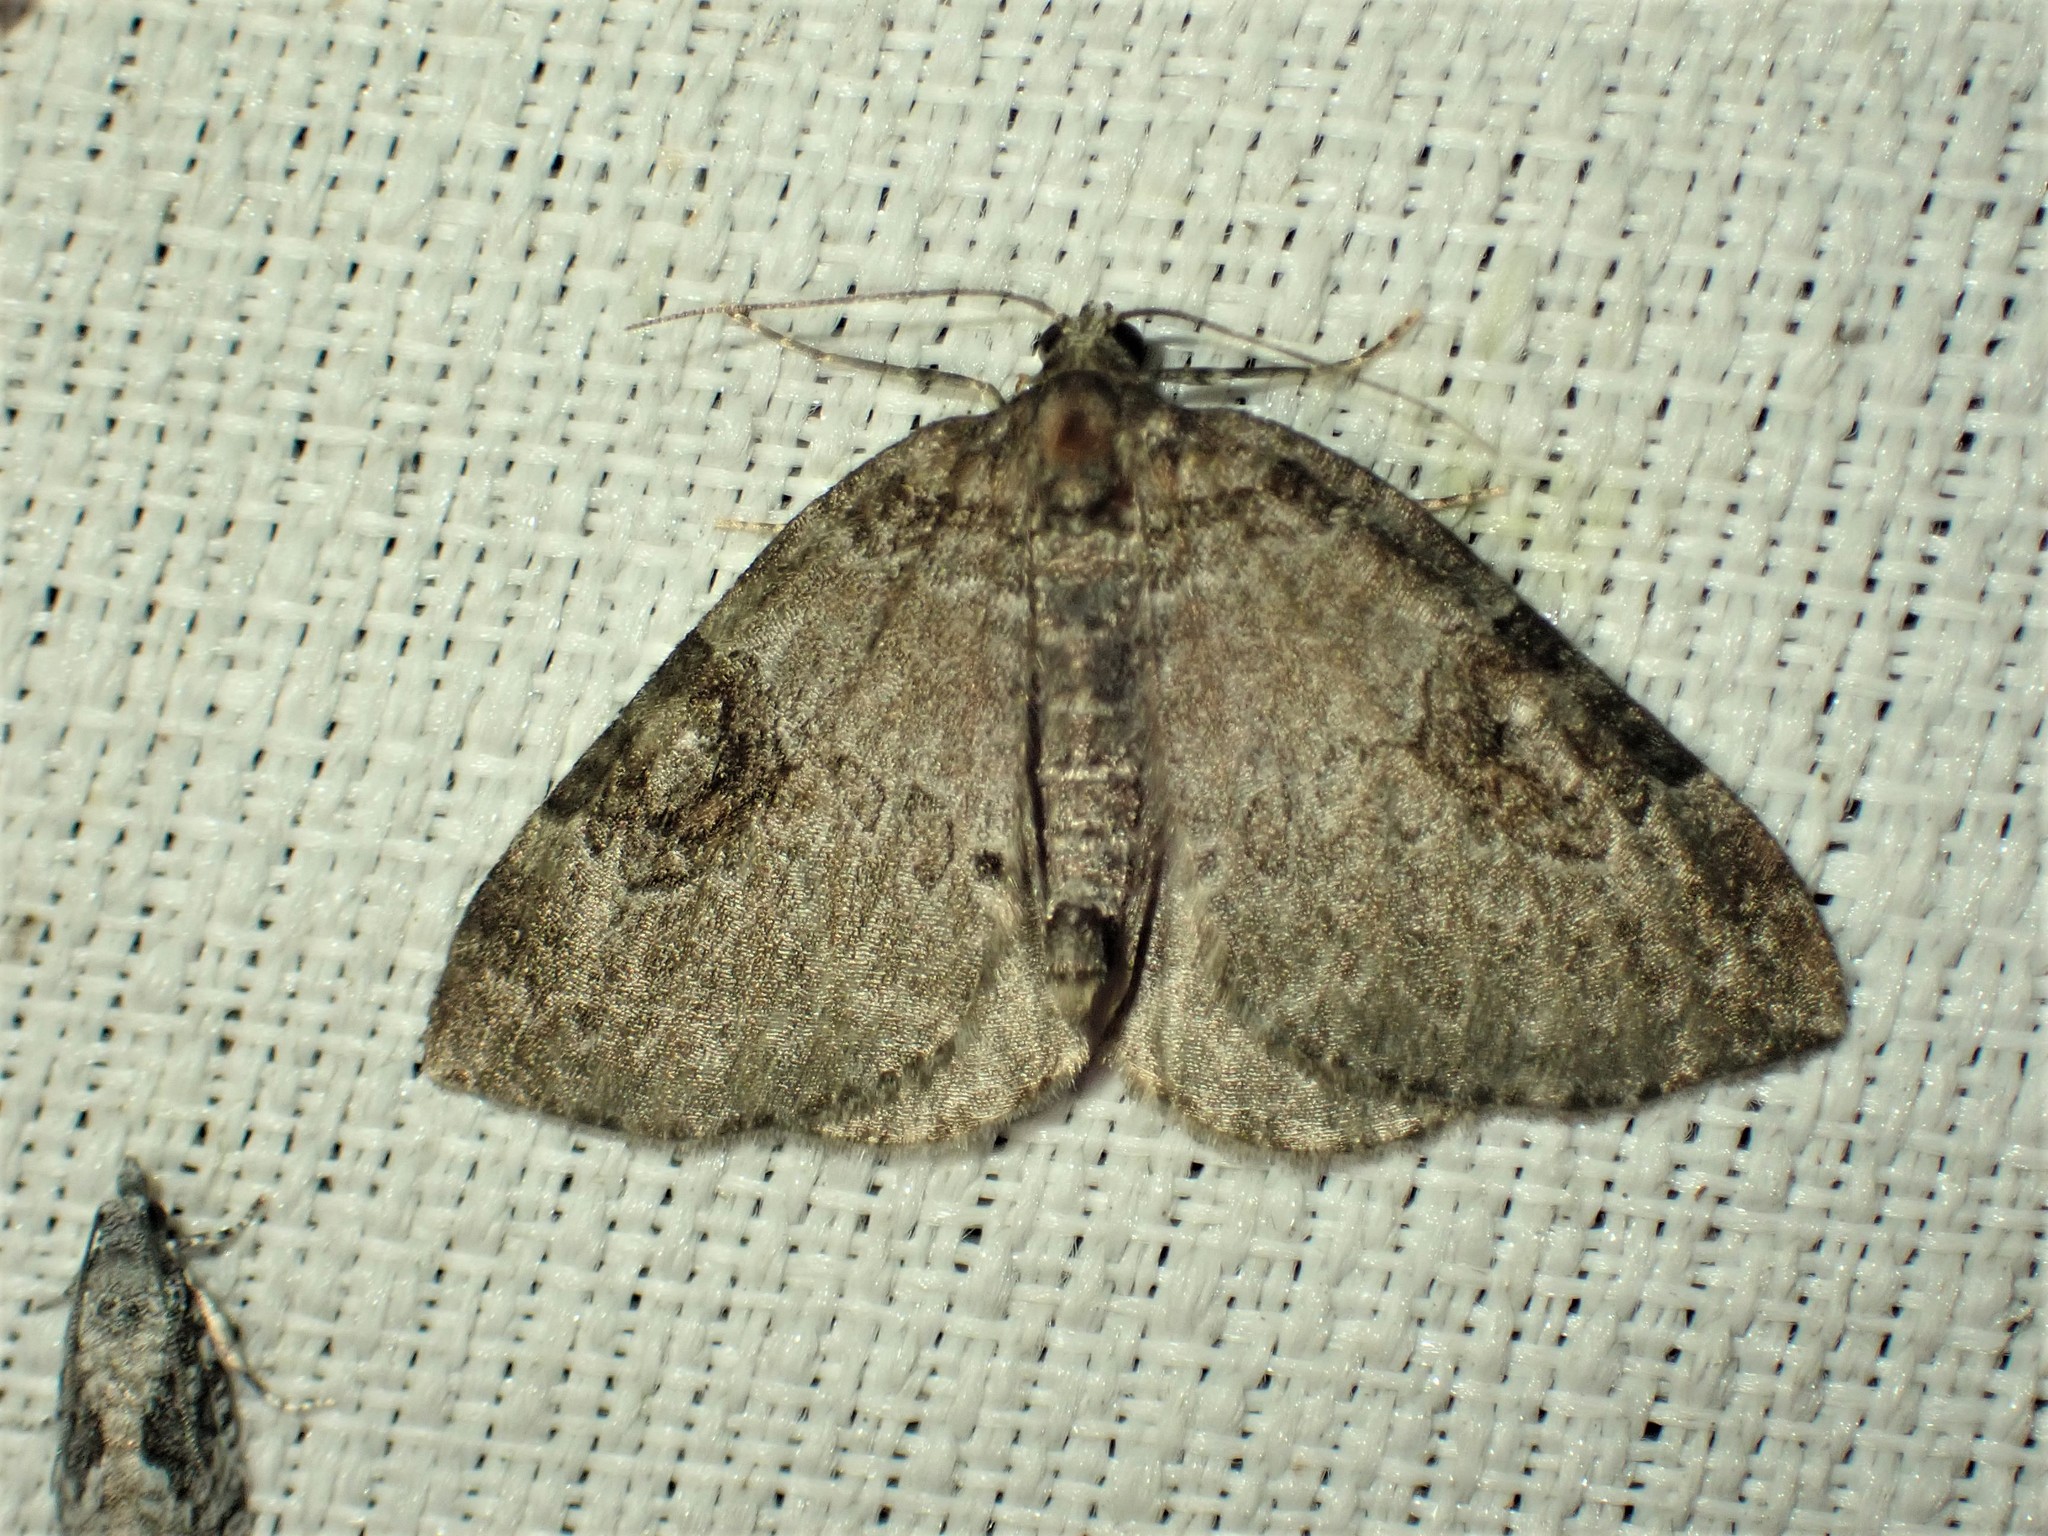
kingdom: Animalia
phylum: Arthropoda
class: Insecta
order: Lepidoptera
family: Geometridae
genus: Plemyria
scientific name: Plemyria georgii
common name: George's carpet moth
